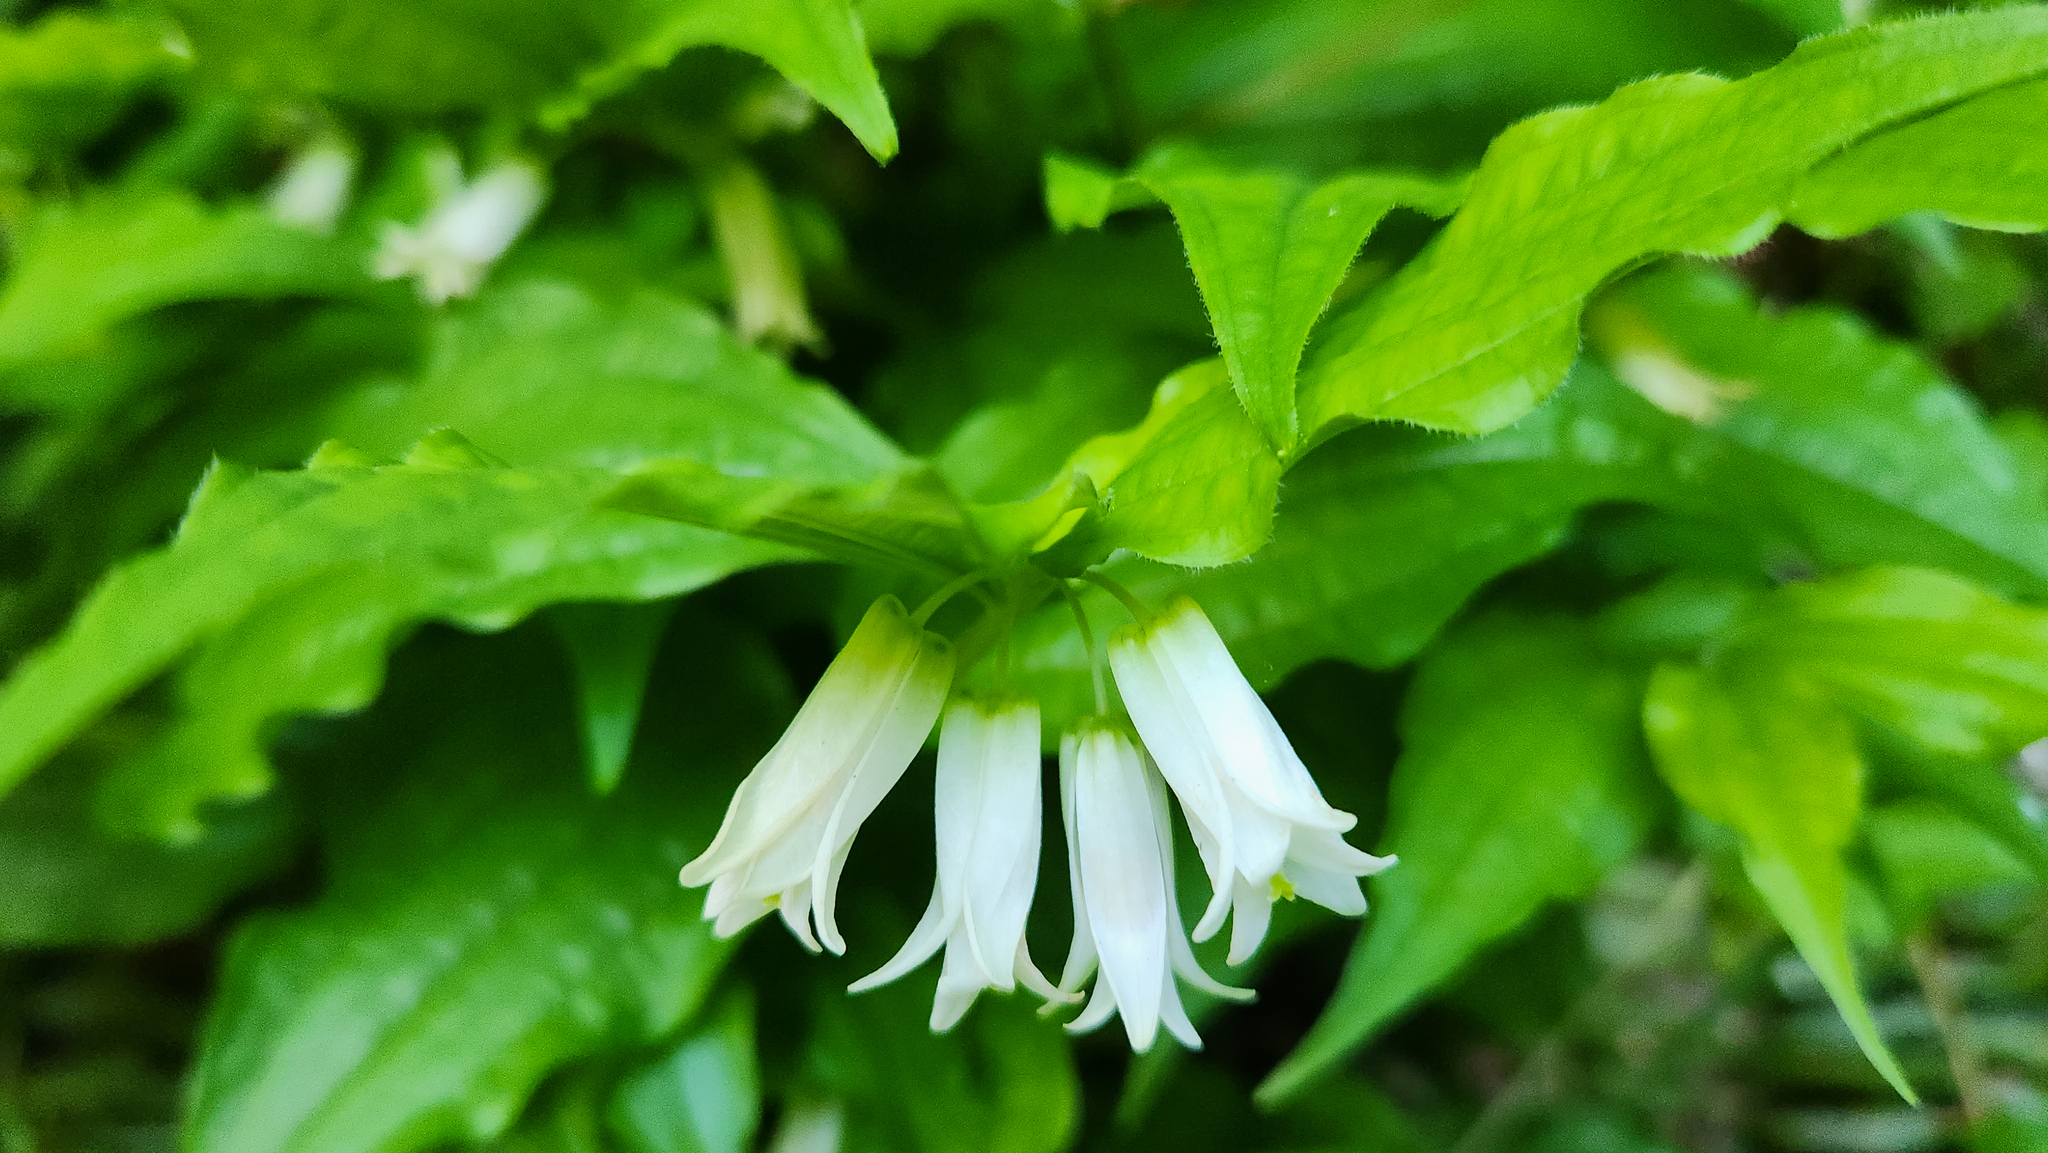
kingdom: Plantae
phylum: Tracheophyta
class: Liliopsida
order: Liliales
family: Liliaceae
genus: Prosartes
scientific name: Prosartes smithii
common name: Fairy-lantern
